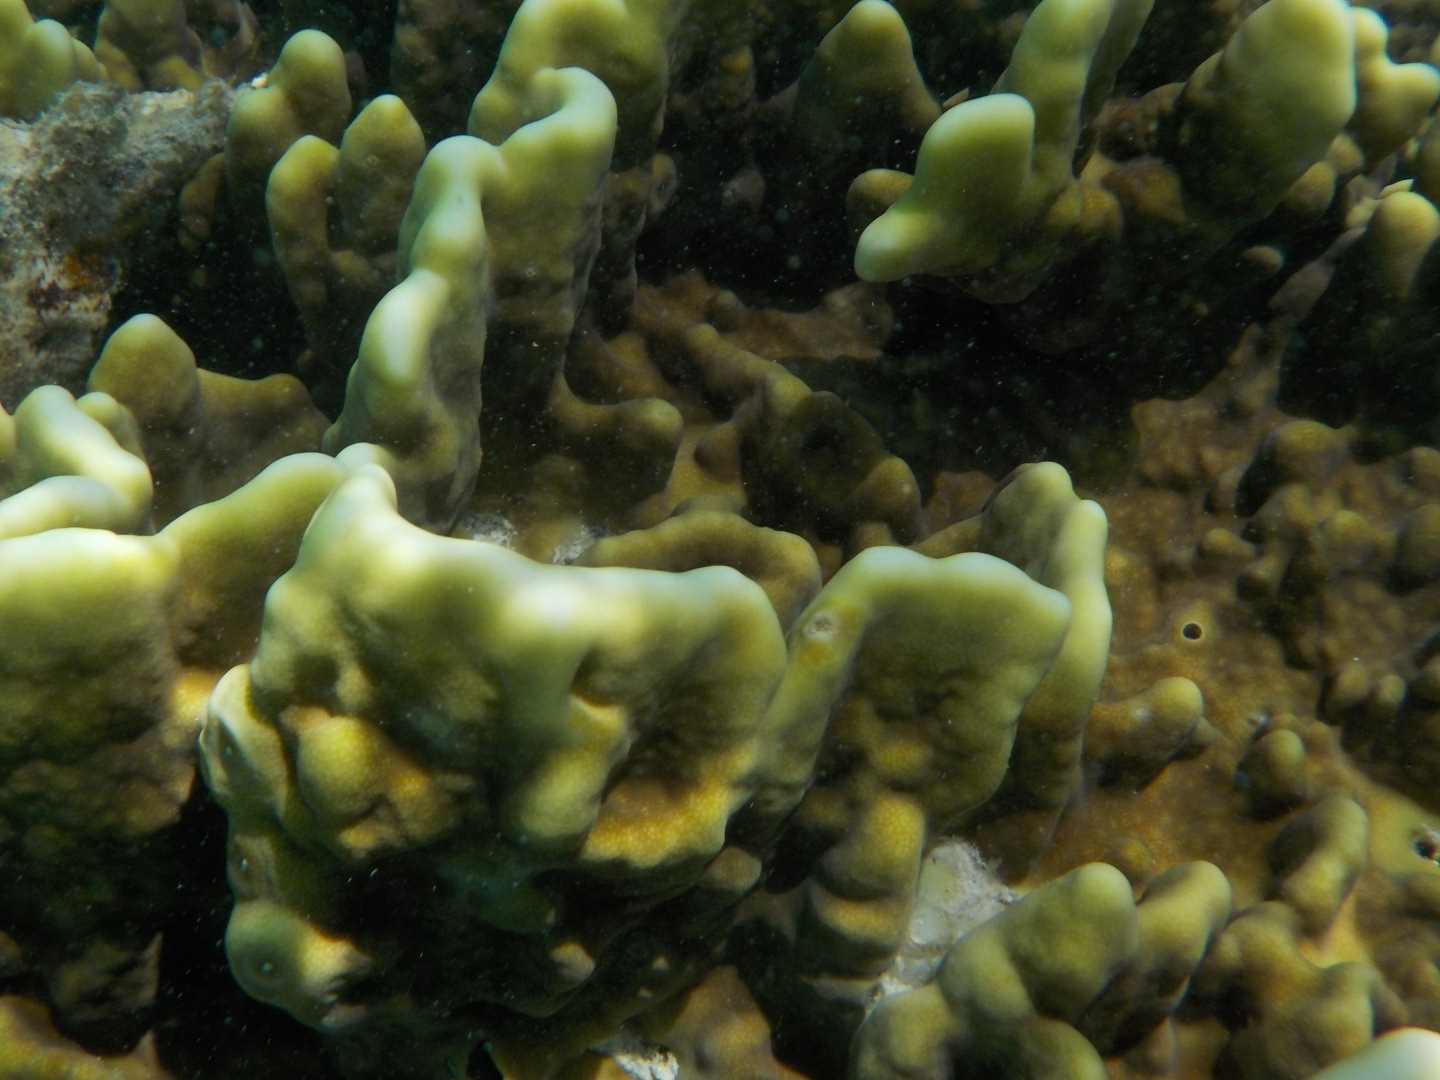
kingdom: Animalia
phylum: Cnidaria
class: Hydrozoa
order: Anthoathecata
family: Milleporidae
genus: Millepora
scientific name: Millepora exaesa
